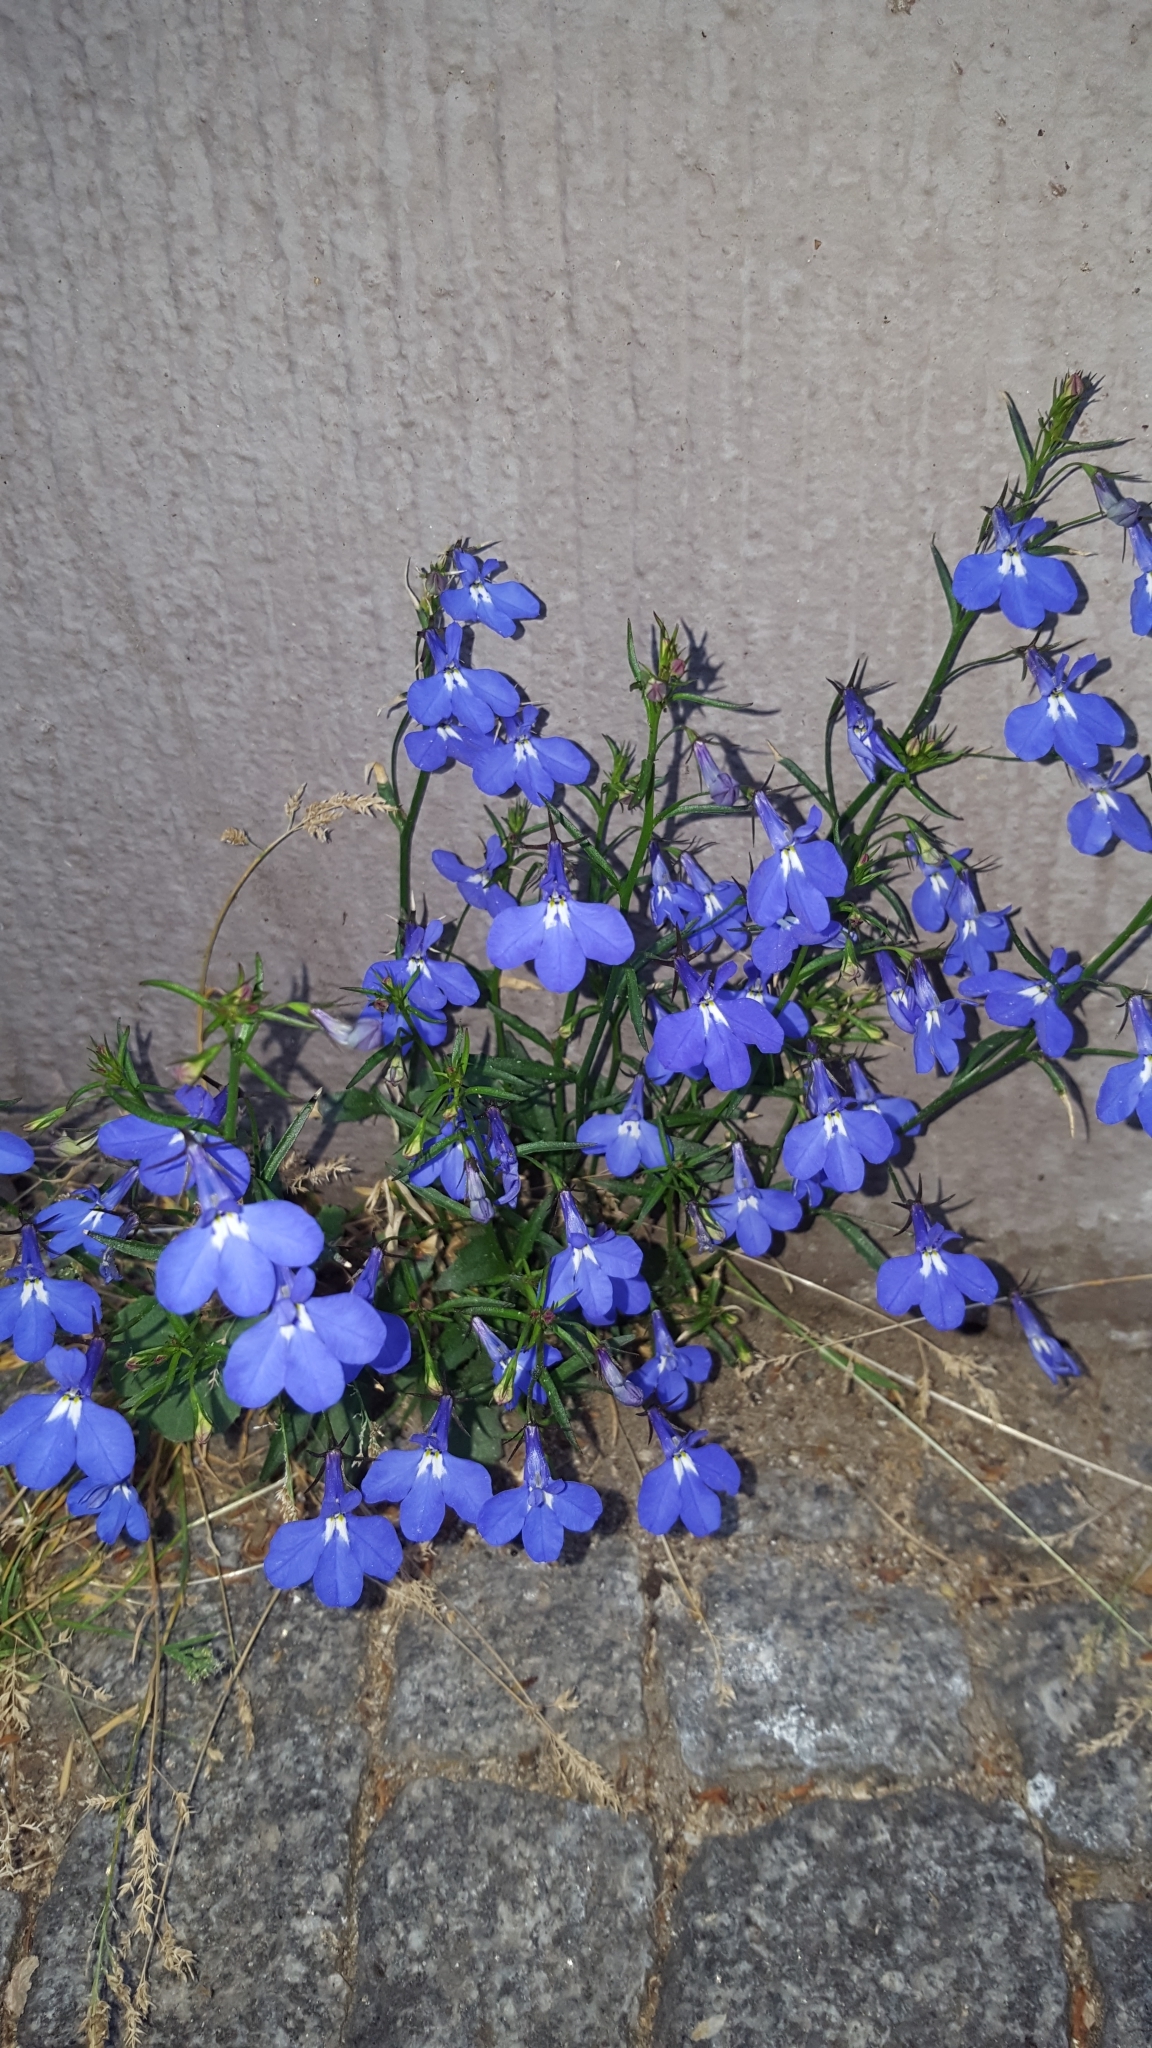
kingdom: Plantae
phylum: Tracheophyta
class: Magnoliopsida
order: Asterales
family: Campanulaceae
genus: Lobelia
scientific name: Lobelia erinus
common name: Edging lobelia
